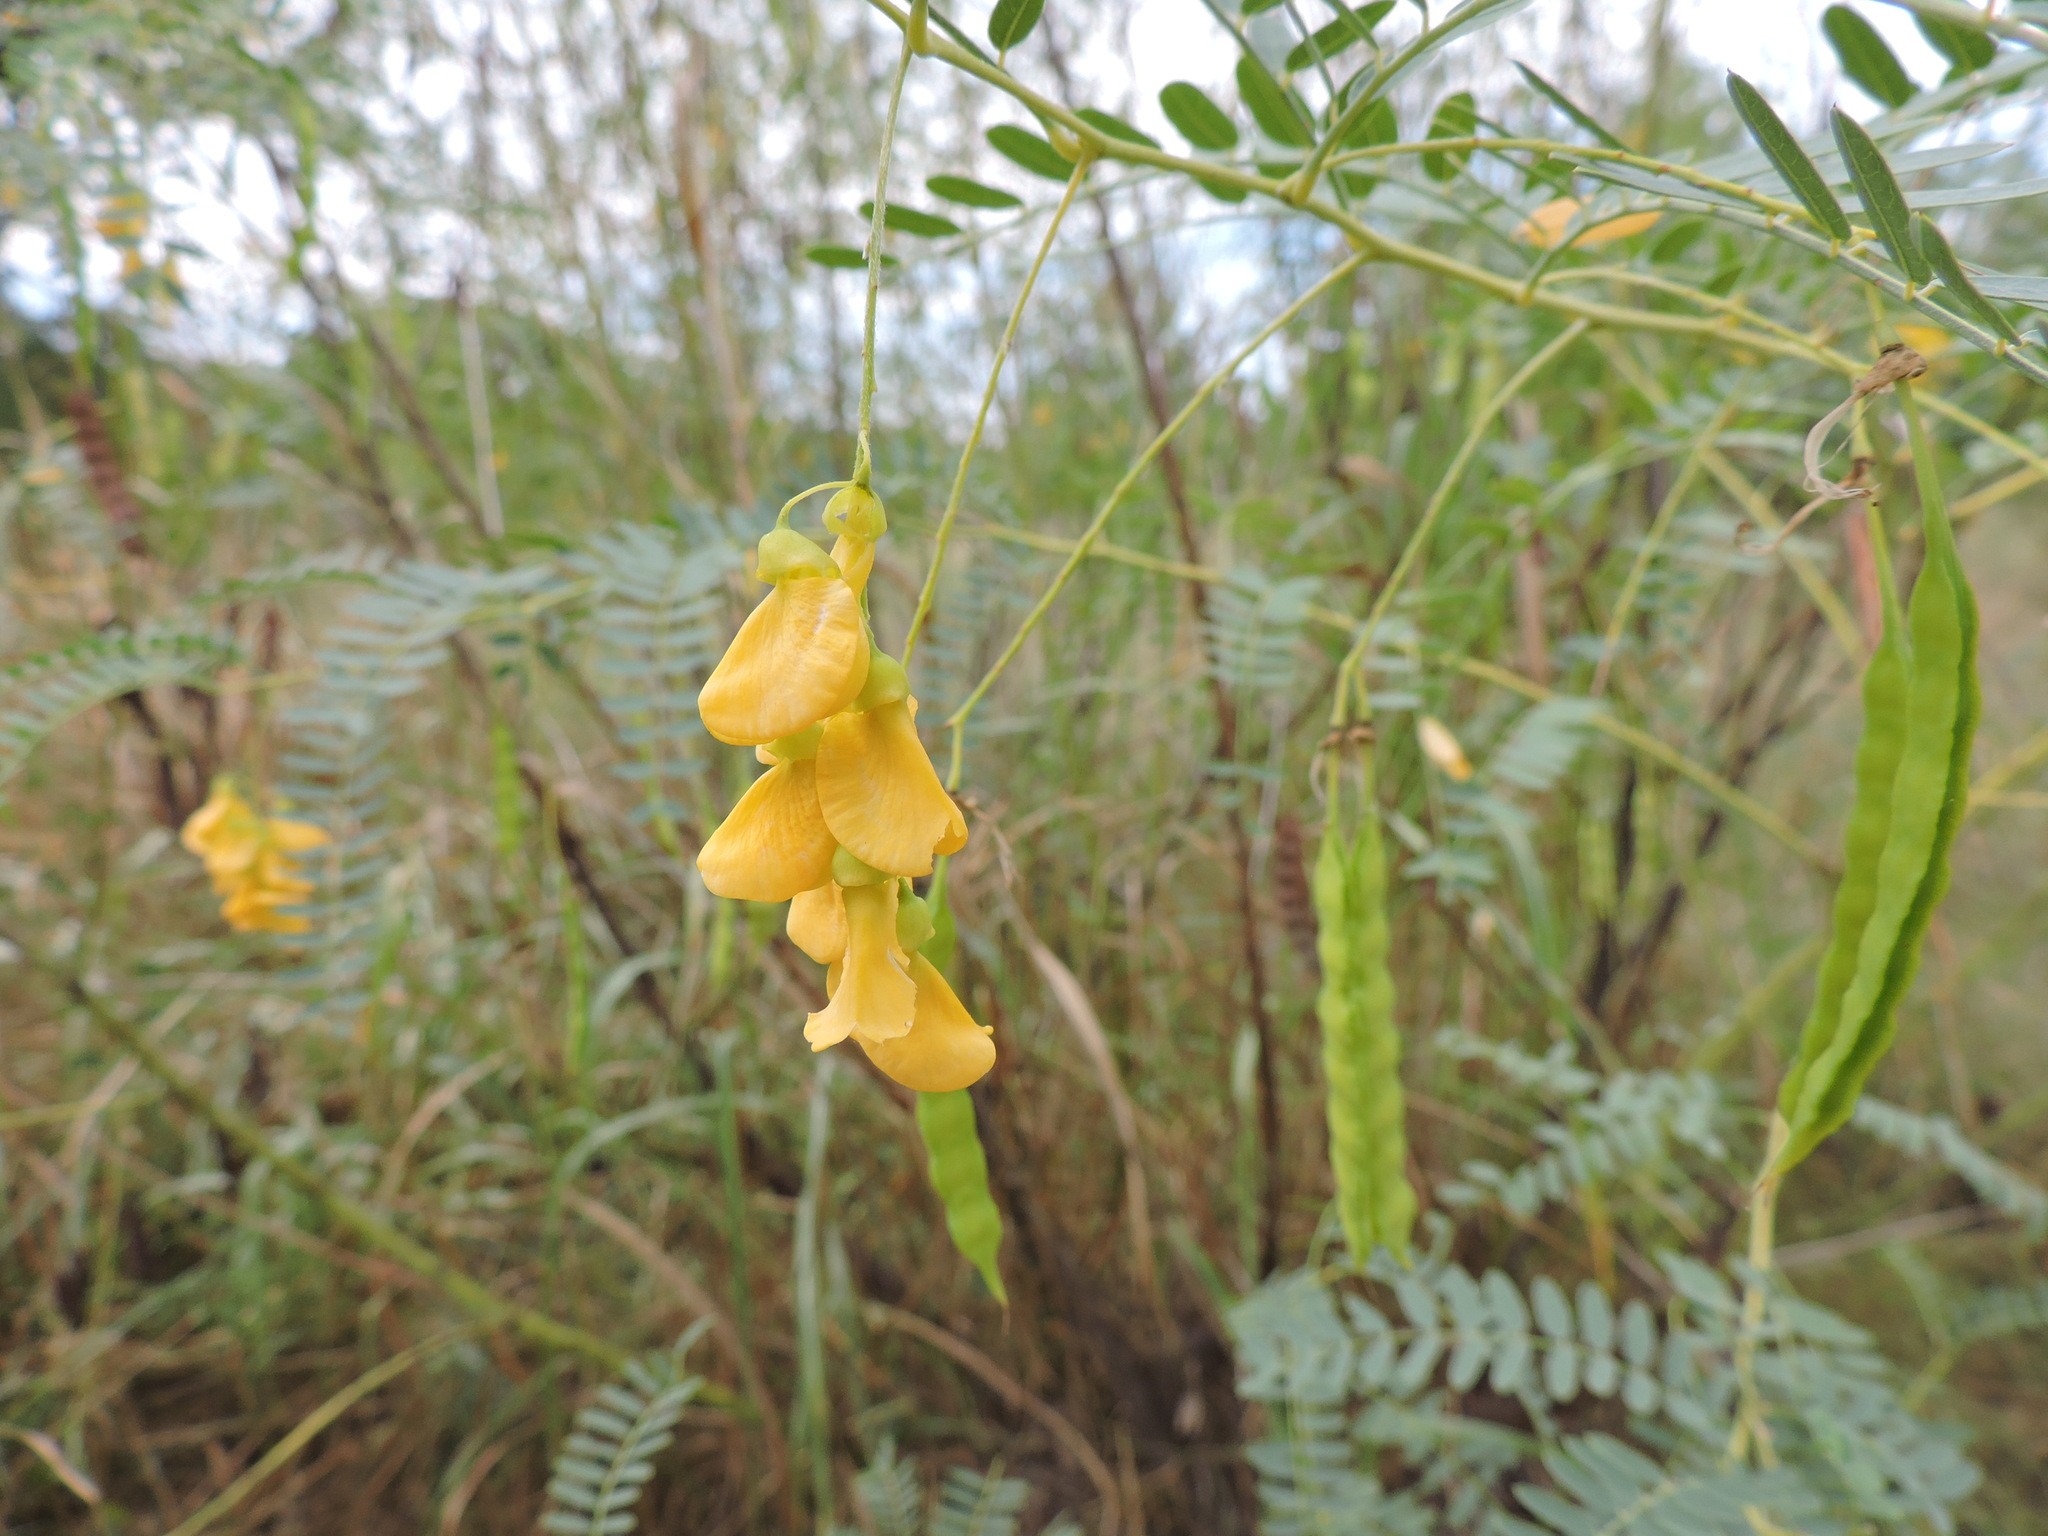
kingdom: Plantae
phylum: Tracheophyta
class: Magnoliopsida
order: Fabales
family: Fabaceae
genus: Sesbania
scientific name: Sesbania drummondii
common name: Poison-bean
